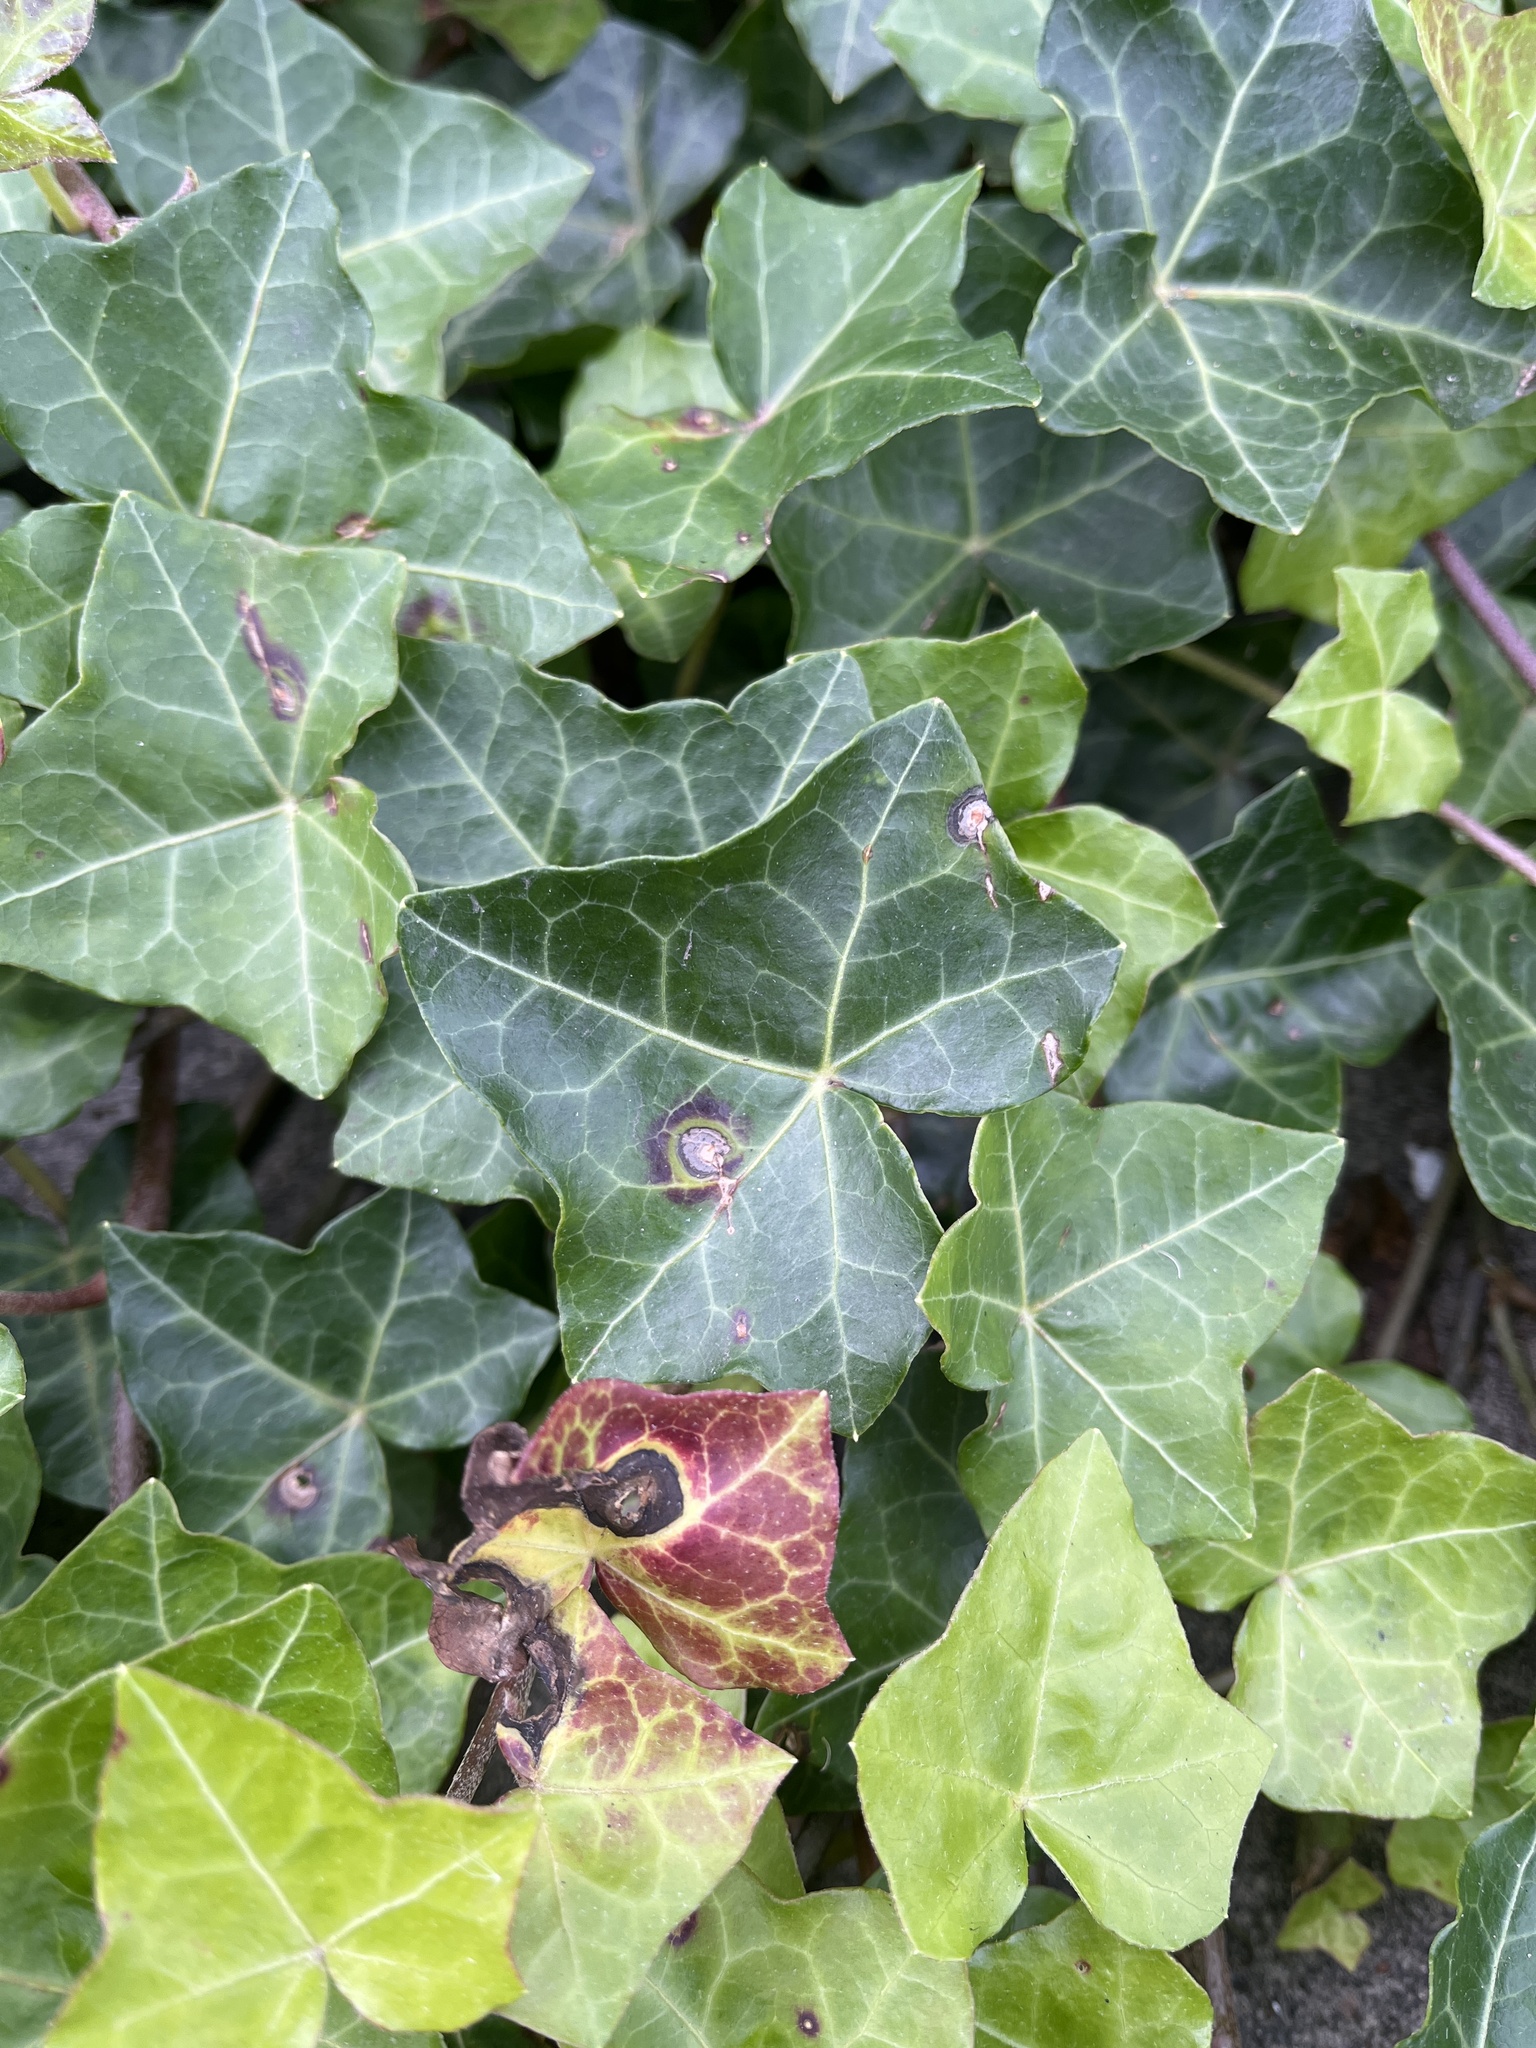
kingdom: Fungi
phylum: Ascomycota
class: Dothideomycetes
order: Pleosporales
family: Didymellaceae
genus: Boeremia
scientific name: Boeremia hedericola
